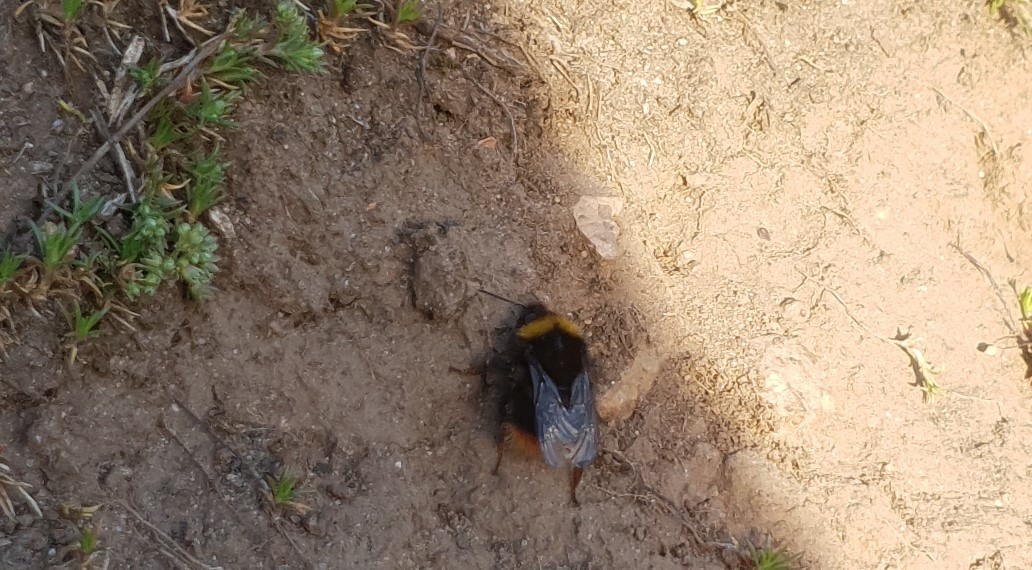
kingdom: Animalia
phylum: Arthropoda
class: Insecta
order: Hymenoptera
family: Apidae
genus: Bombus
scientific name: Bombus pratorum
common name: Early humble-bee
